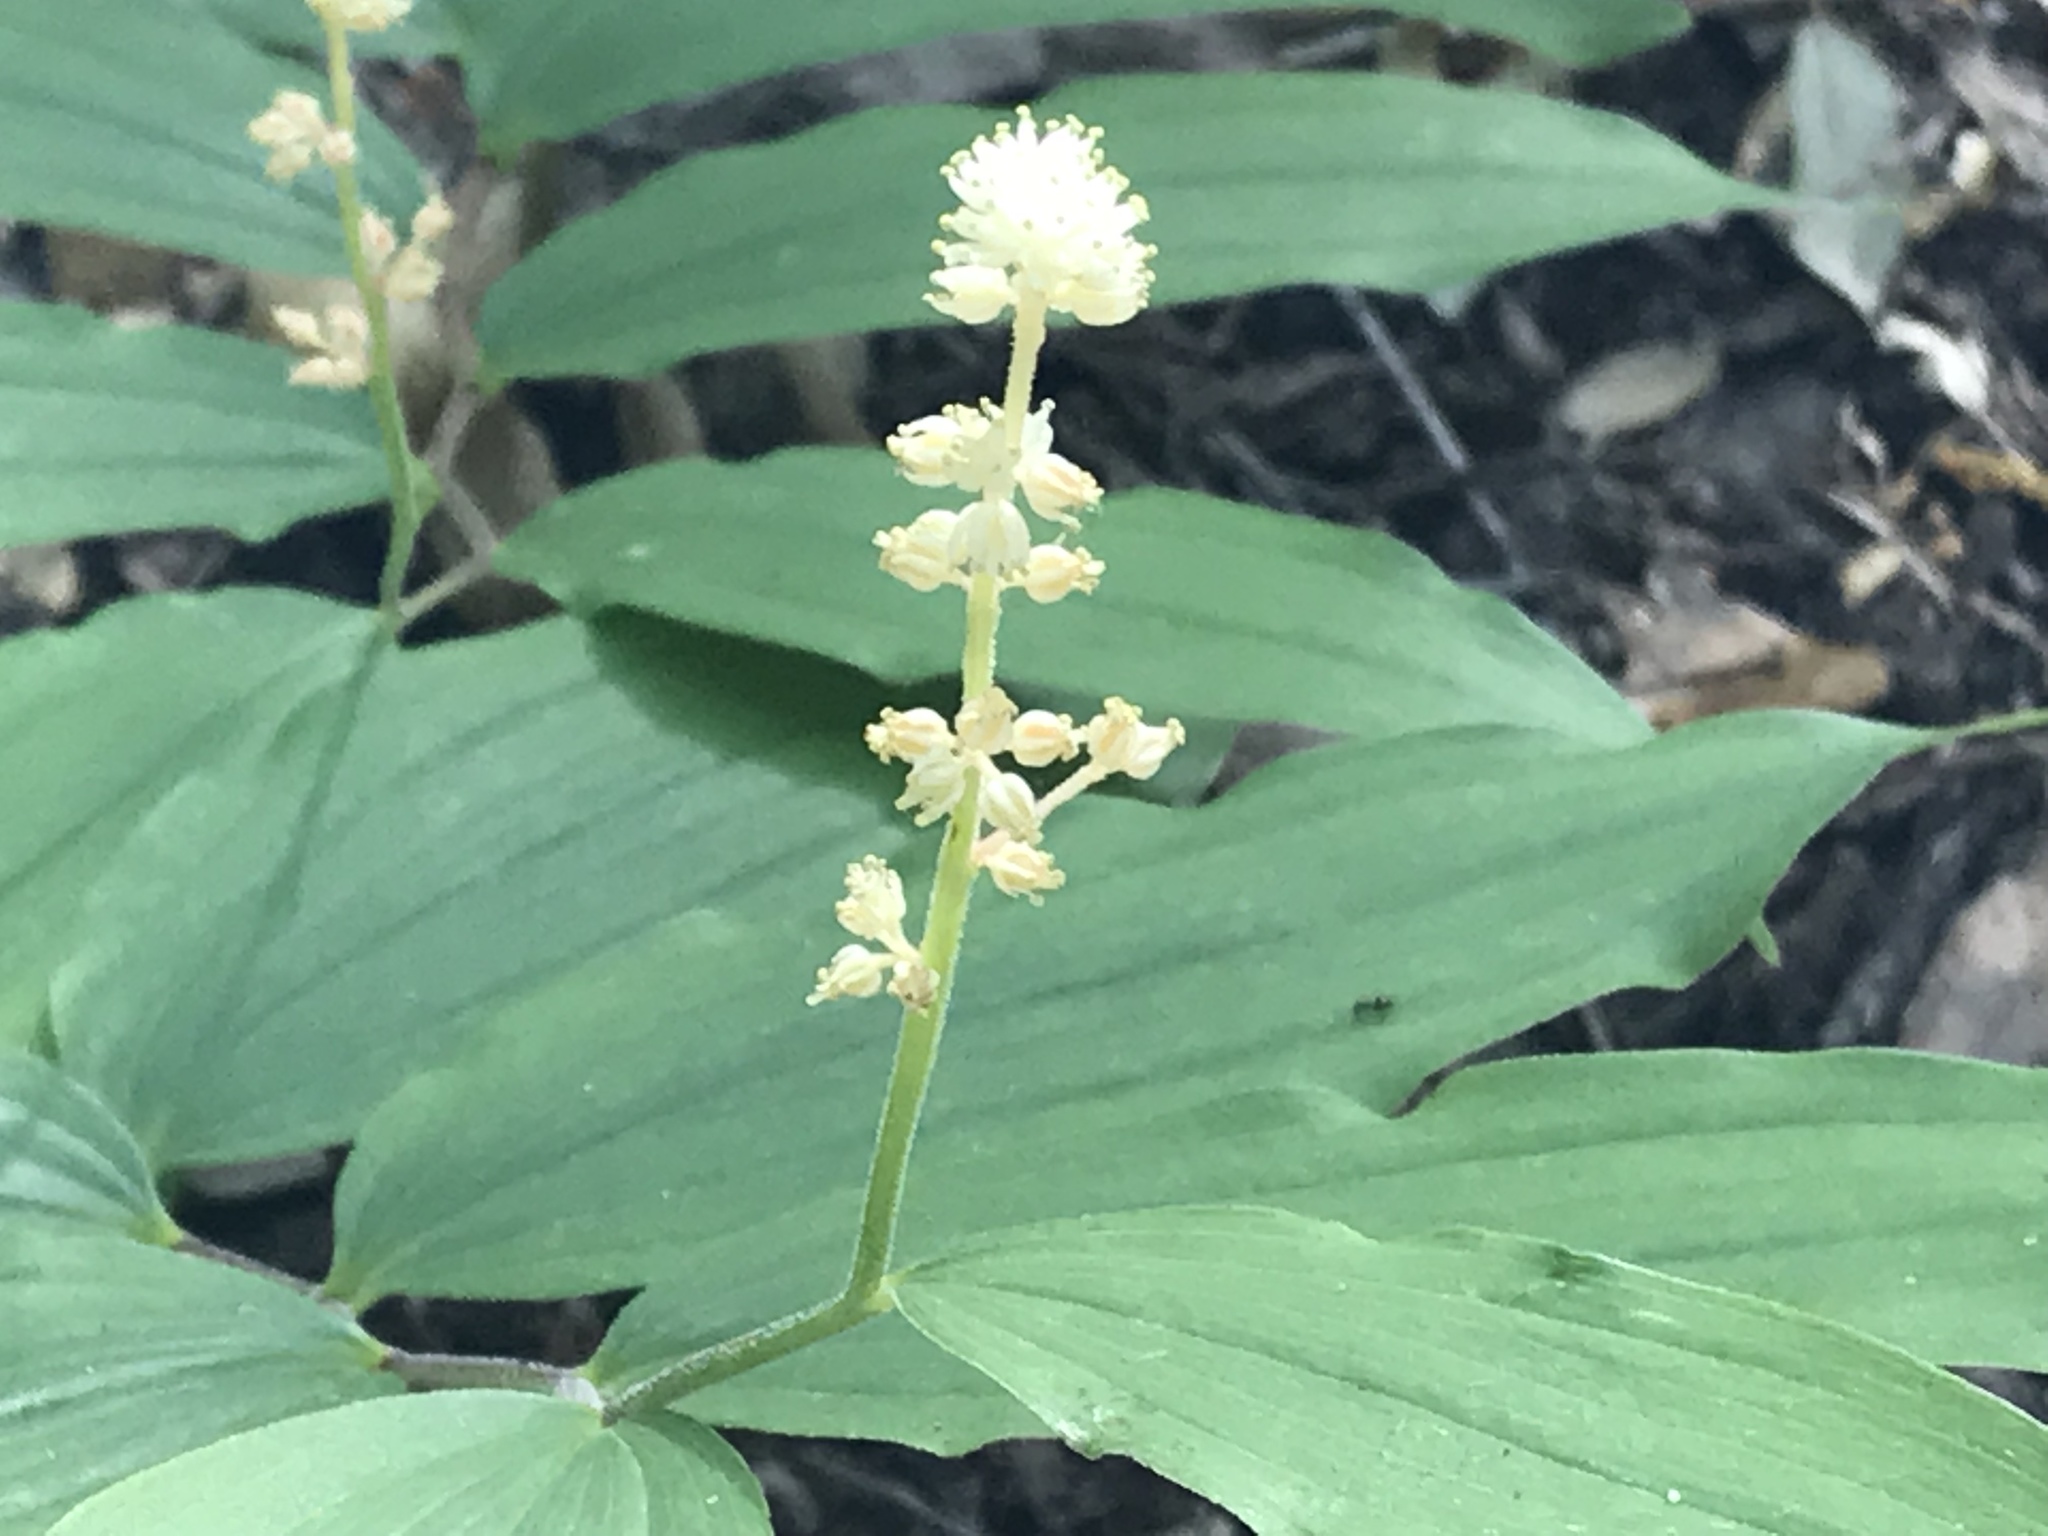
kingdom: Plantae
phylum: Tracheophyta
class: Liliopsida
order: Asparagales
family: Asparagaceae
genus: Maianthemum
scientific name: Maianthemum racemosum
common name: False spikenard
